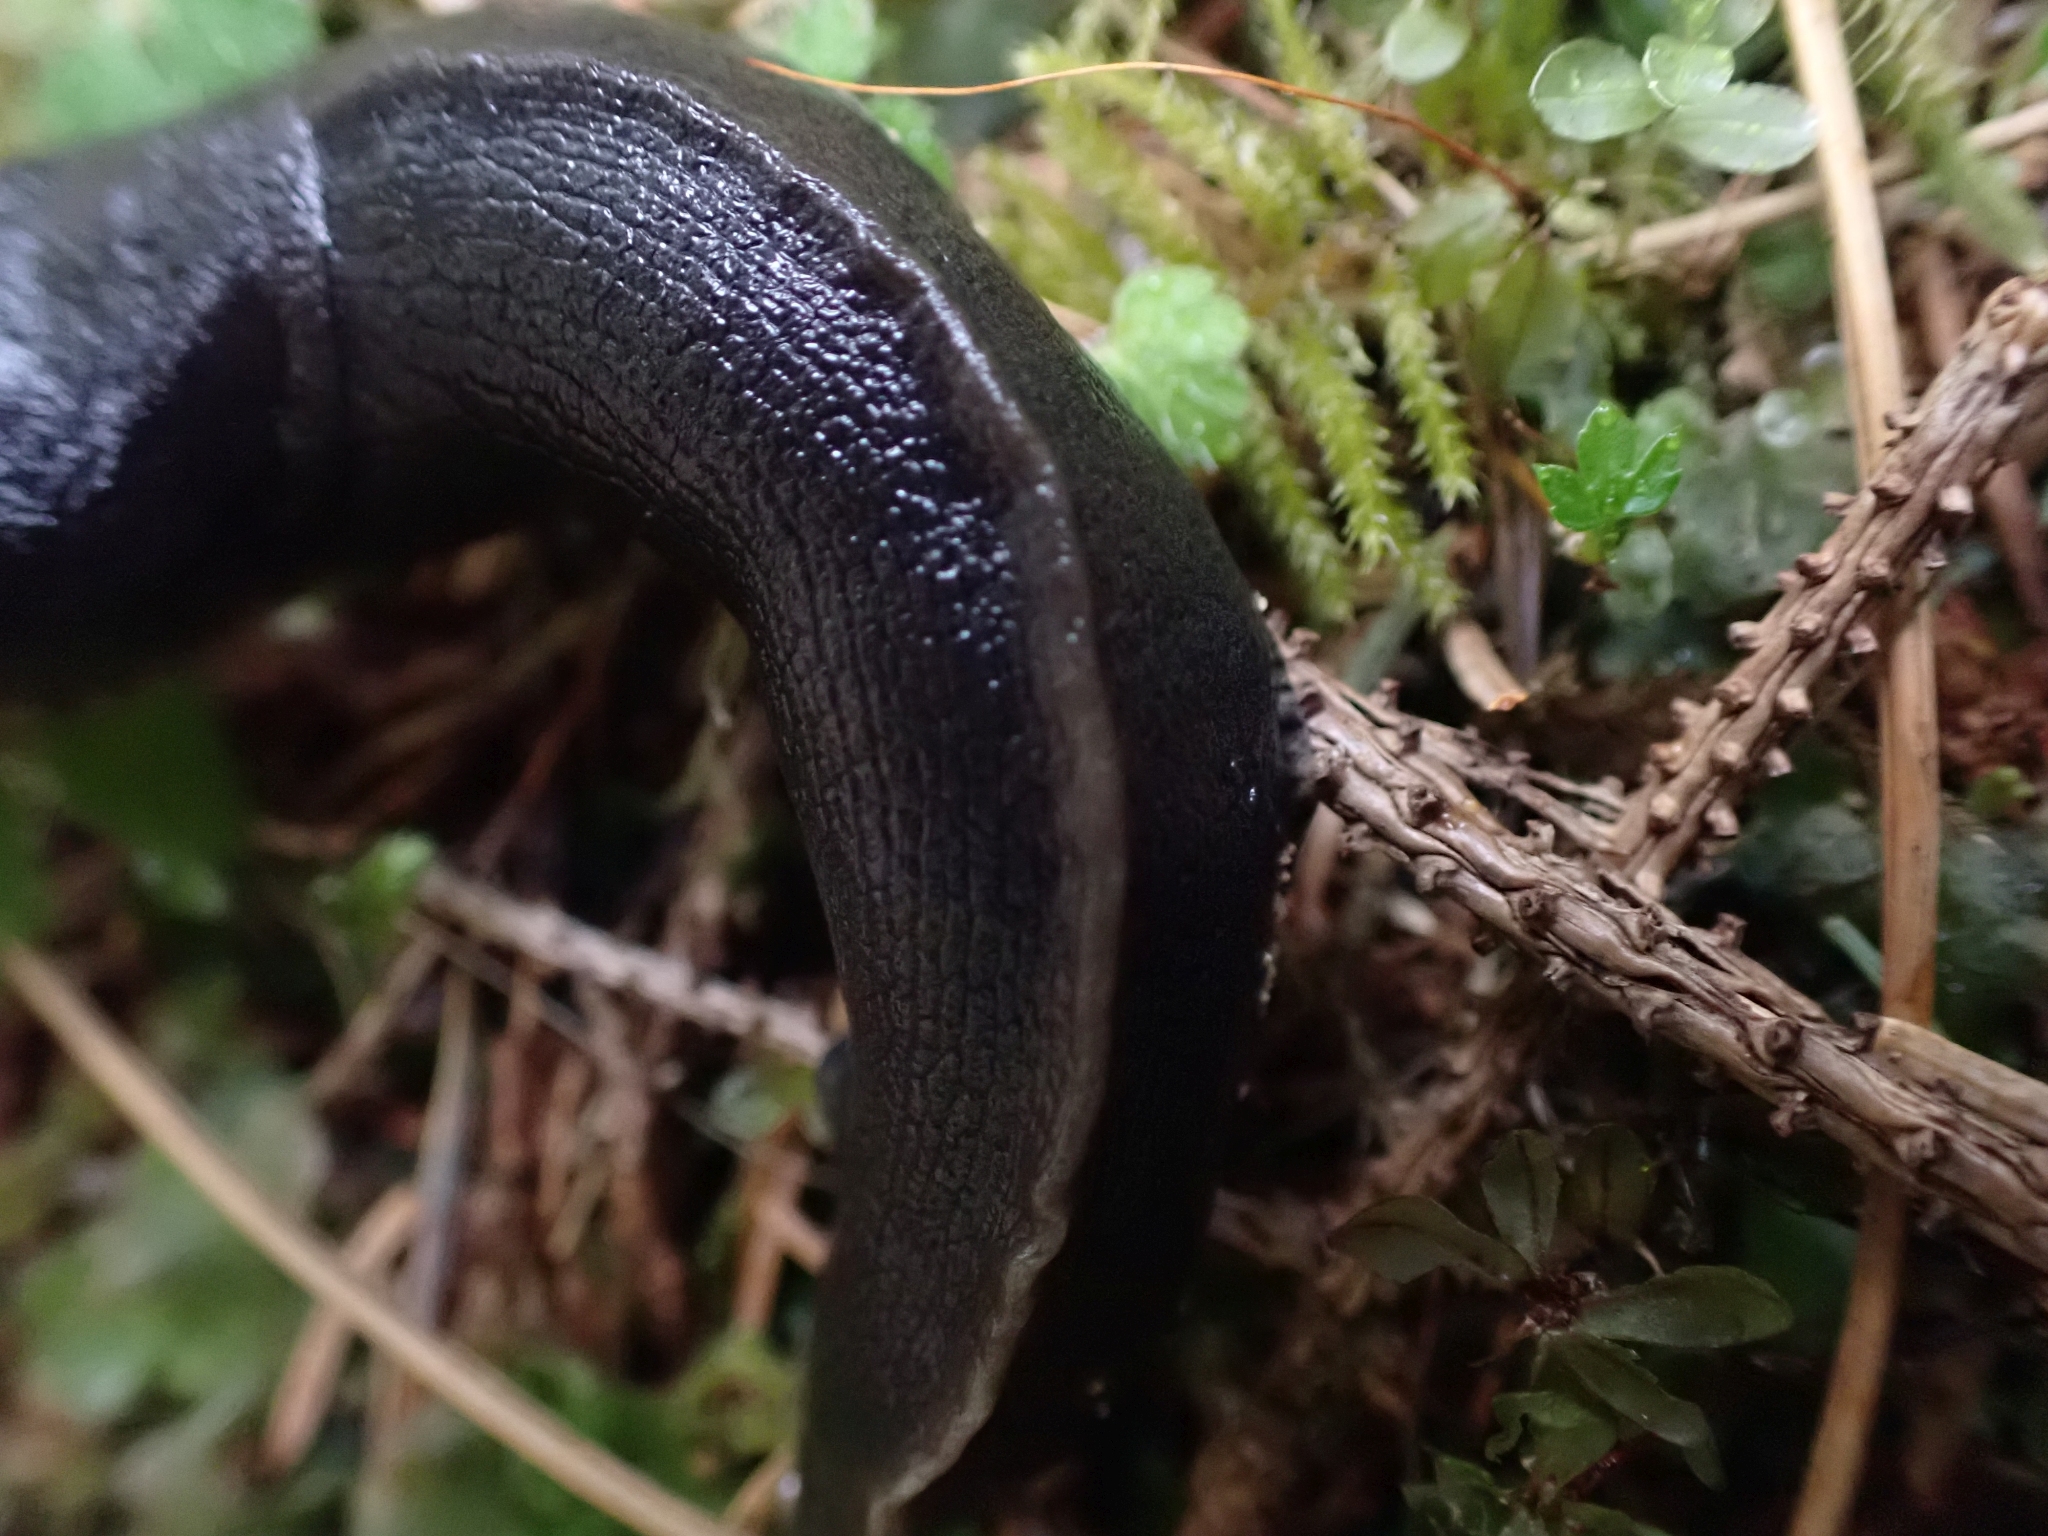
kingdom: Animalia
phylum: Mollusca
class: Gastropoda
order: Stylommatophora
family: Ariolimacidae
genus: Ariolimax
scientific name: Ariolimax columbianus
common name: Pacific banana slug
